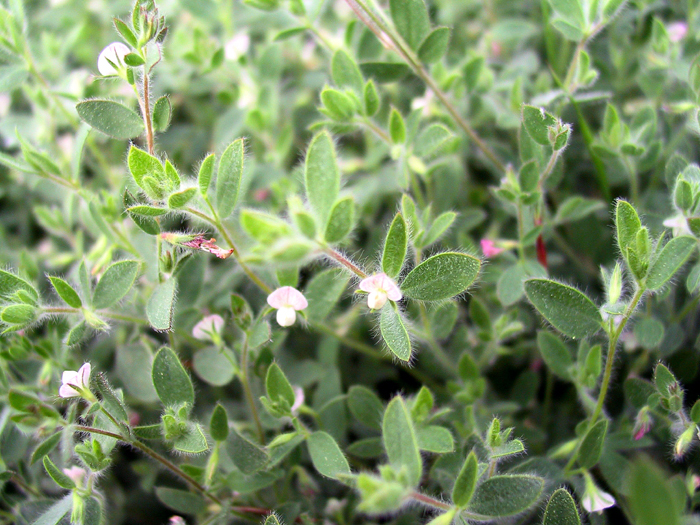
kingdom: Plantae
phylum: Tracheophyta
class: Magnoliopsida
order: Fabales
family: Fabaceae
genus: Acmispon
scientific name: Acmispon americanus
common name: American bird's-foot trefoil
